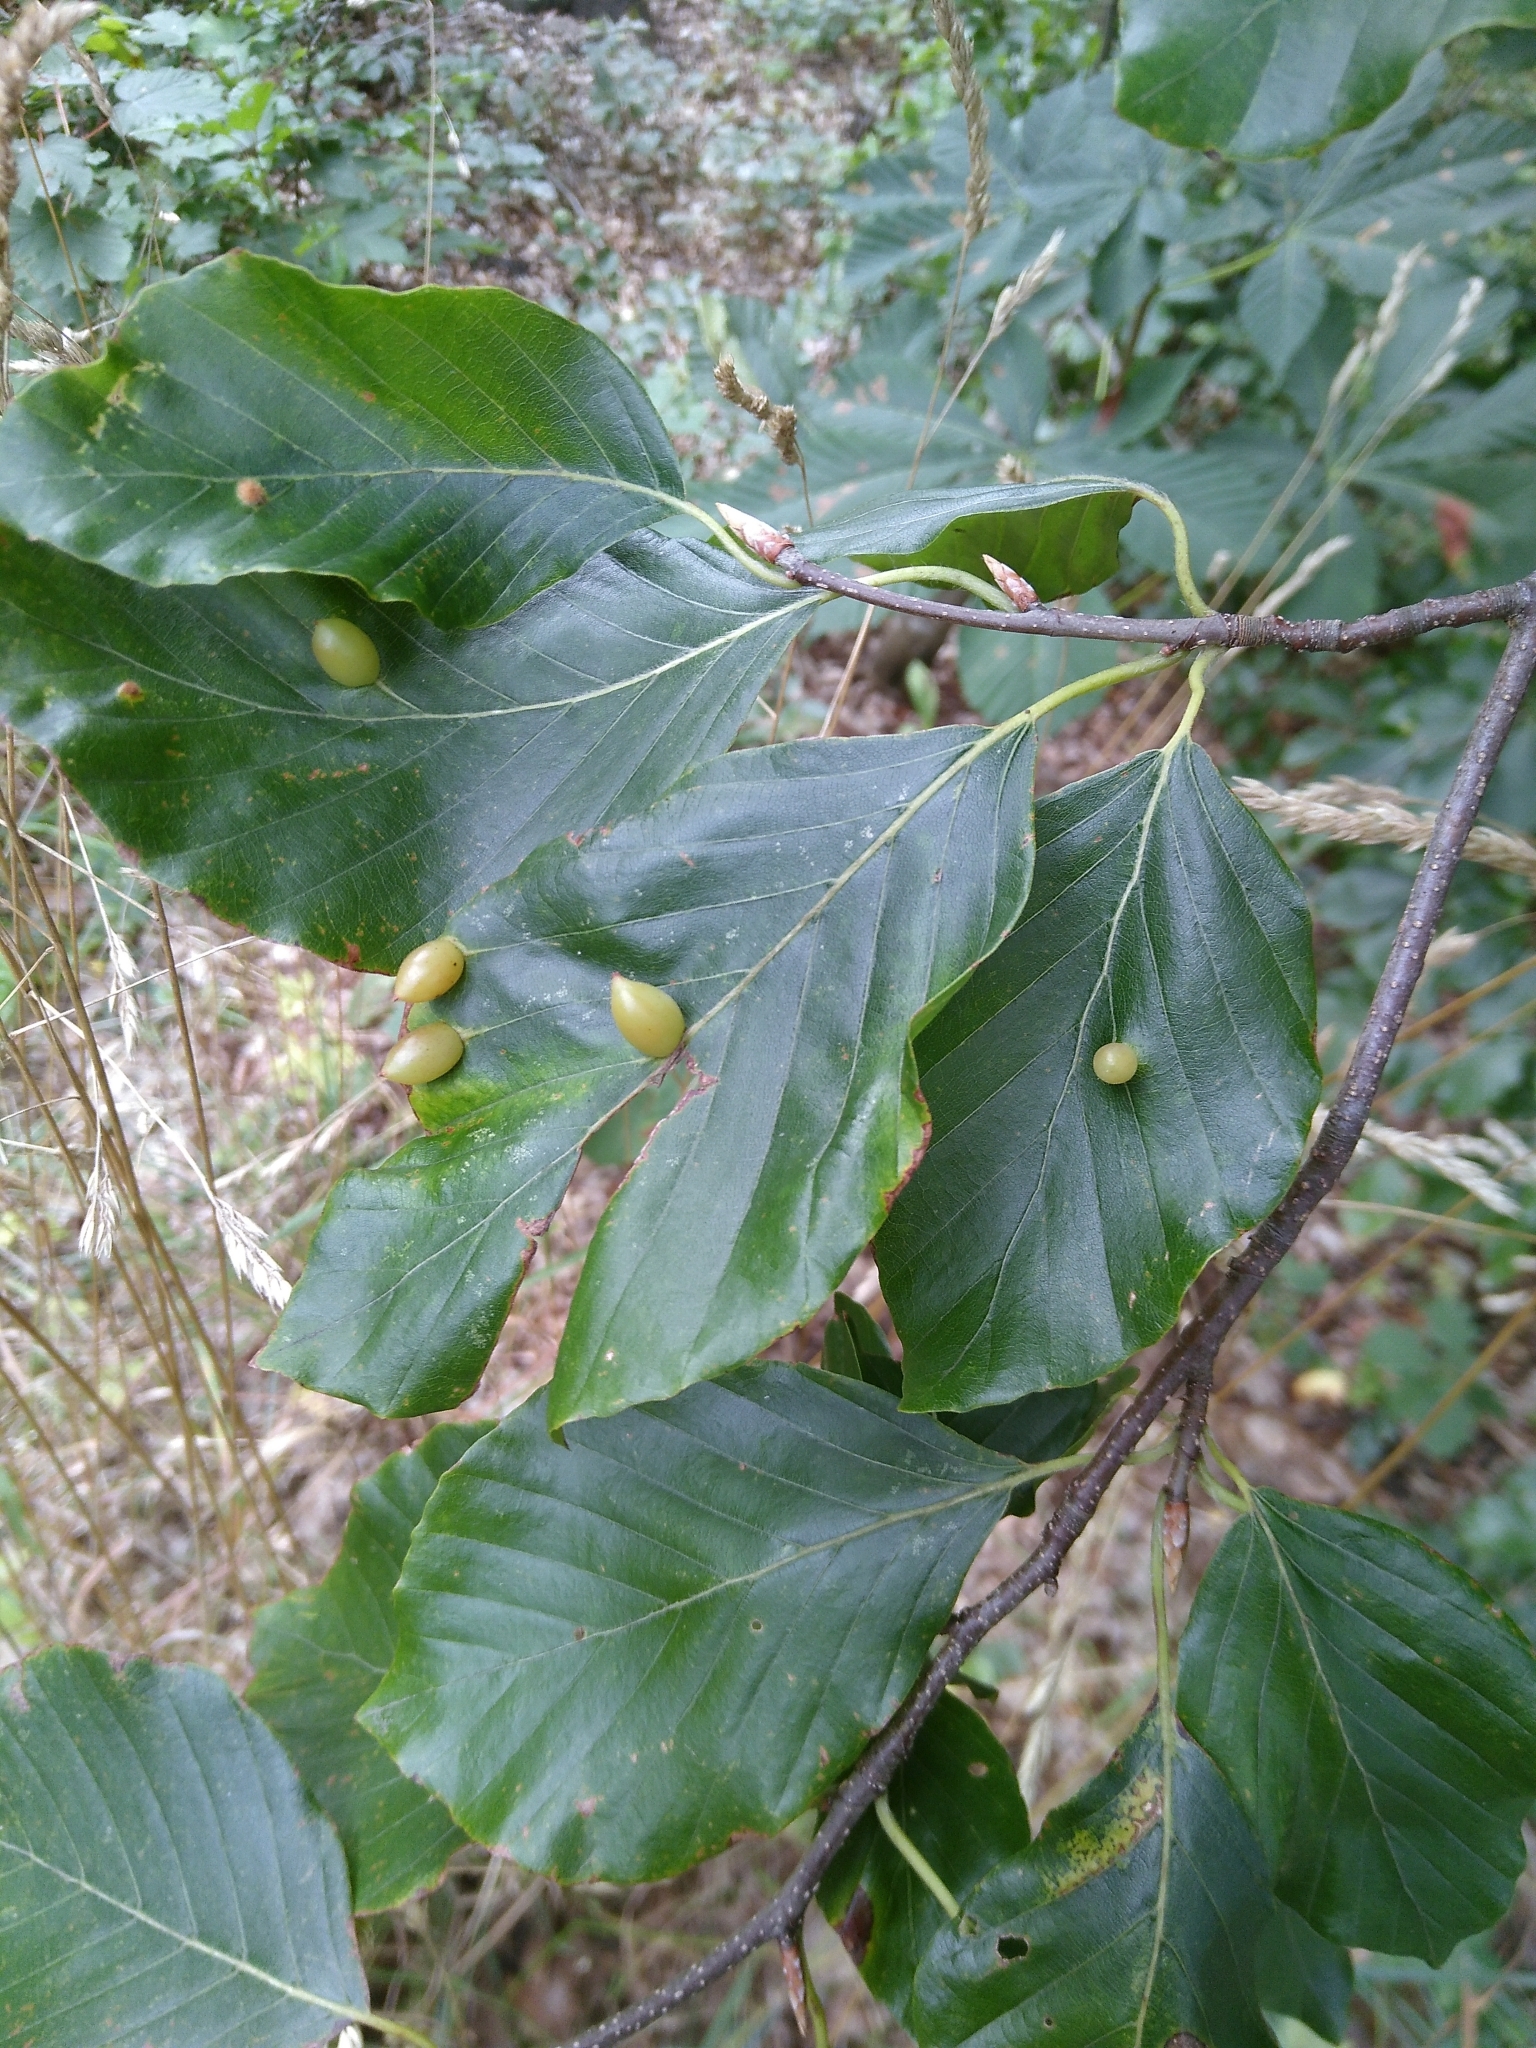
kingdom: Animalia
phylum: Arthropoda
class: Insecta
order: Diptera
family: Cecidomyiidae
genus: Mikiola
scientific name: Mikiola fagi
